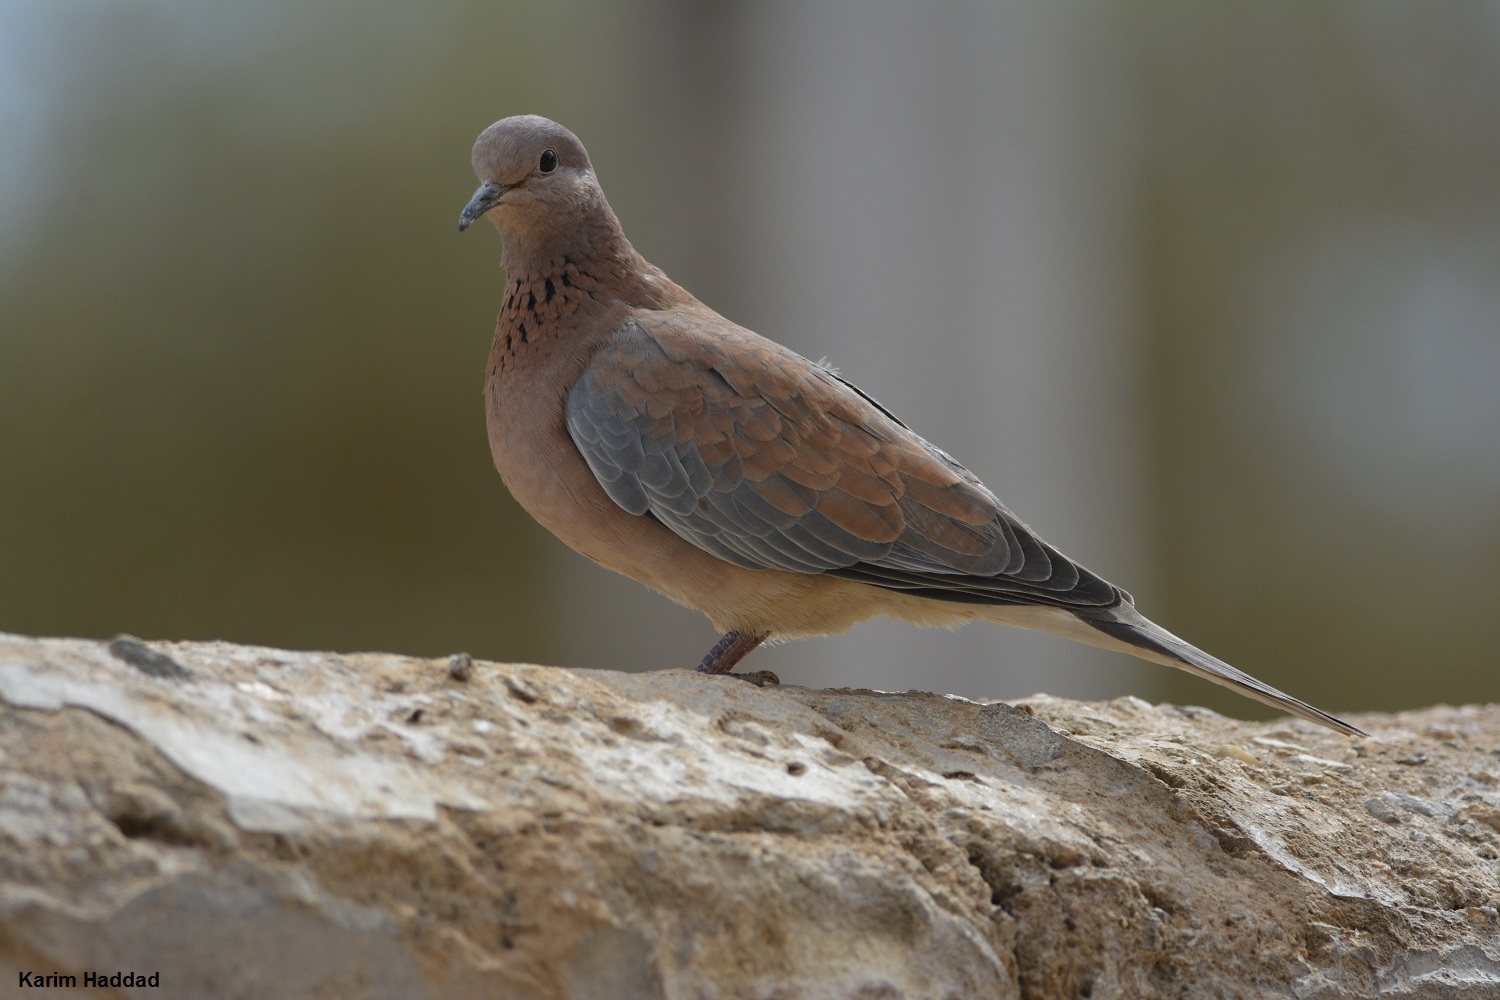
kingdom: Animalia
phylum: Chordata
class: Aves
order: Columbiformes
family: Columbidae
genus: Spilopelia
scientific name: Spilopelia senegalensis
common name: Laughing dove
